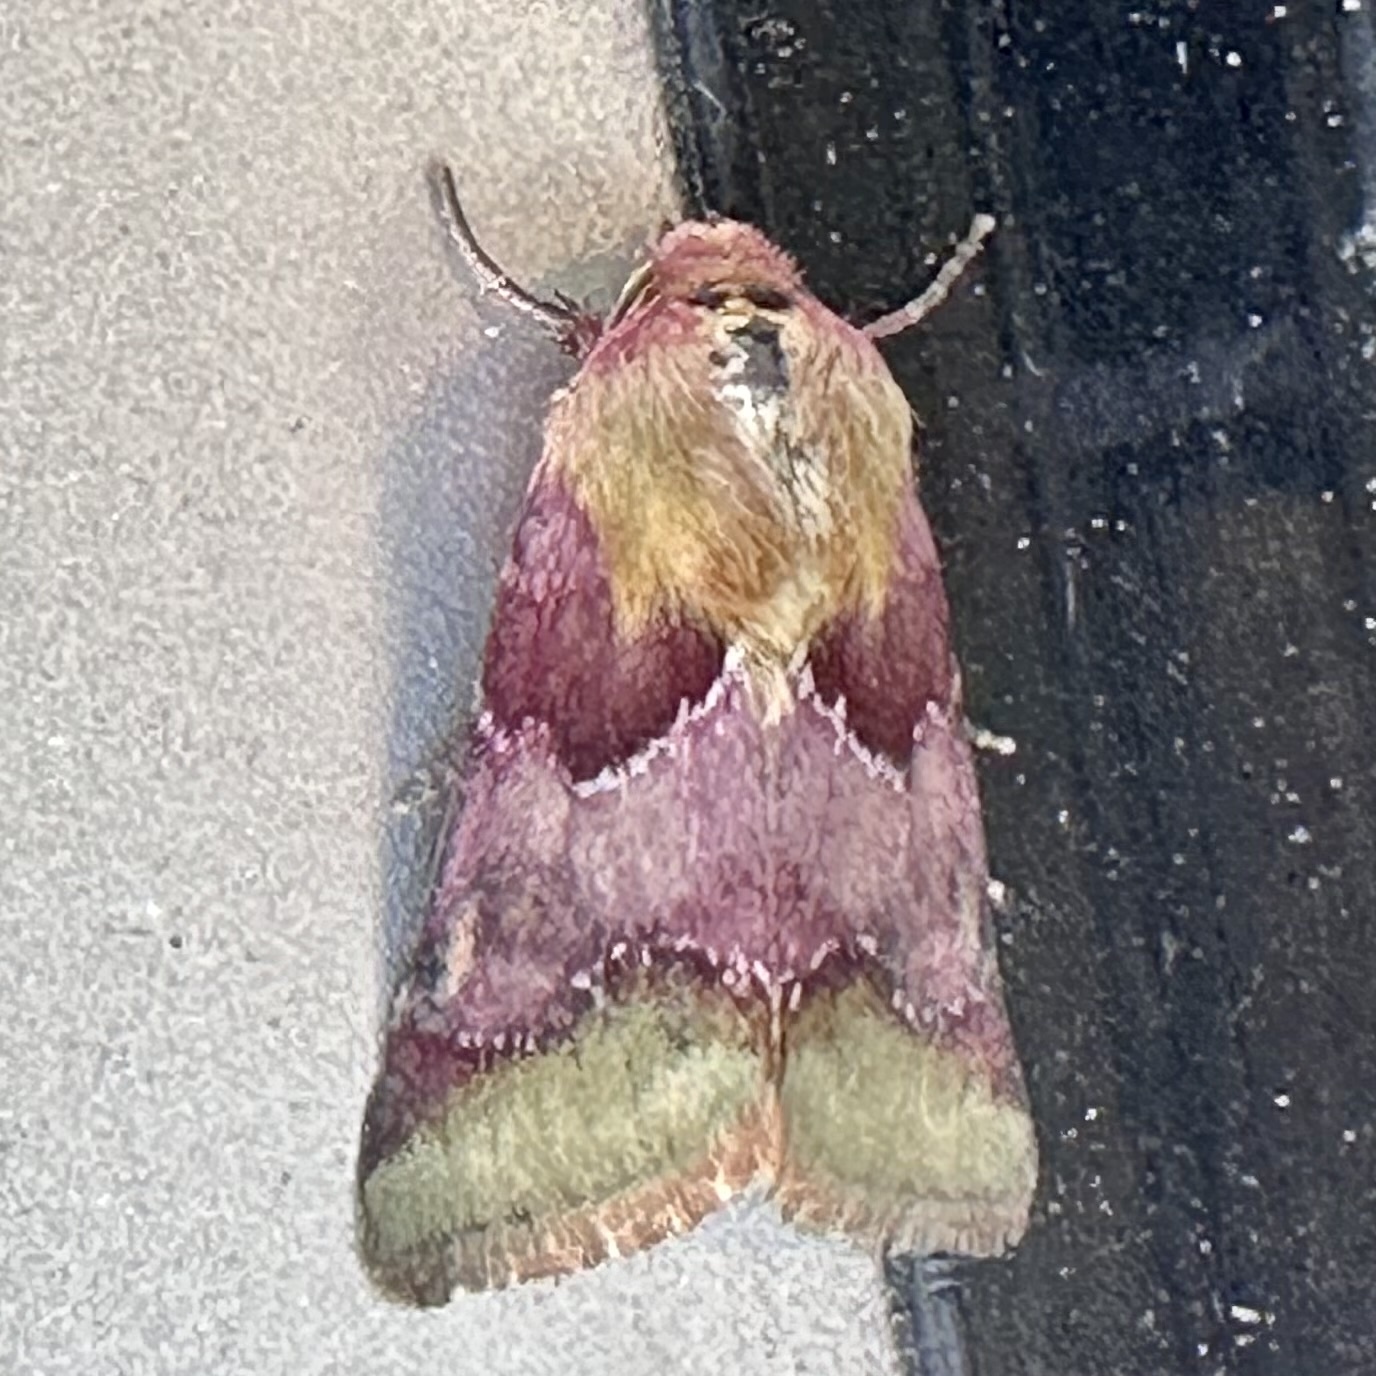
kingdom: Animalia
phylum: Arthropoda
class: Insecta
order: Lepidoptera
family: Noctuidae
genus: Schinia
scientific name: Schinia bina
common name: Bina flower moth
